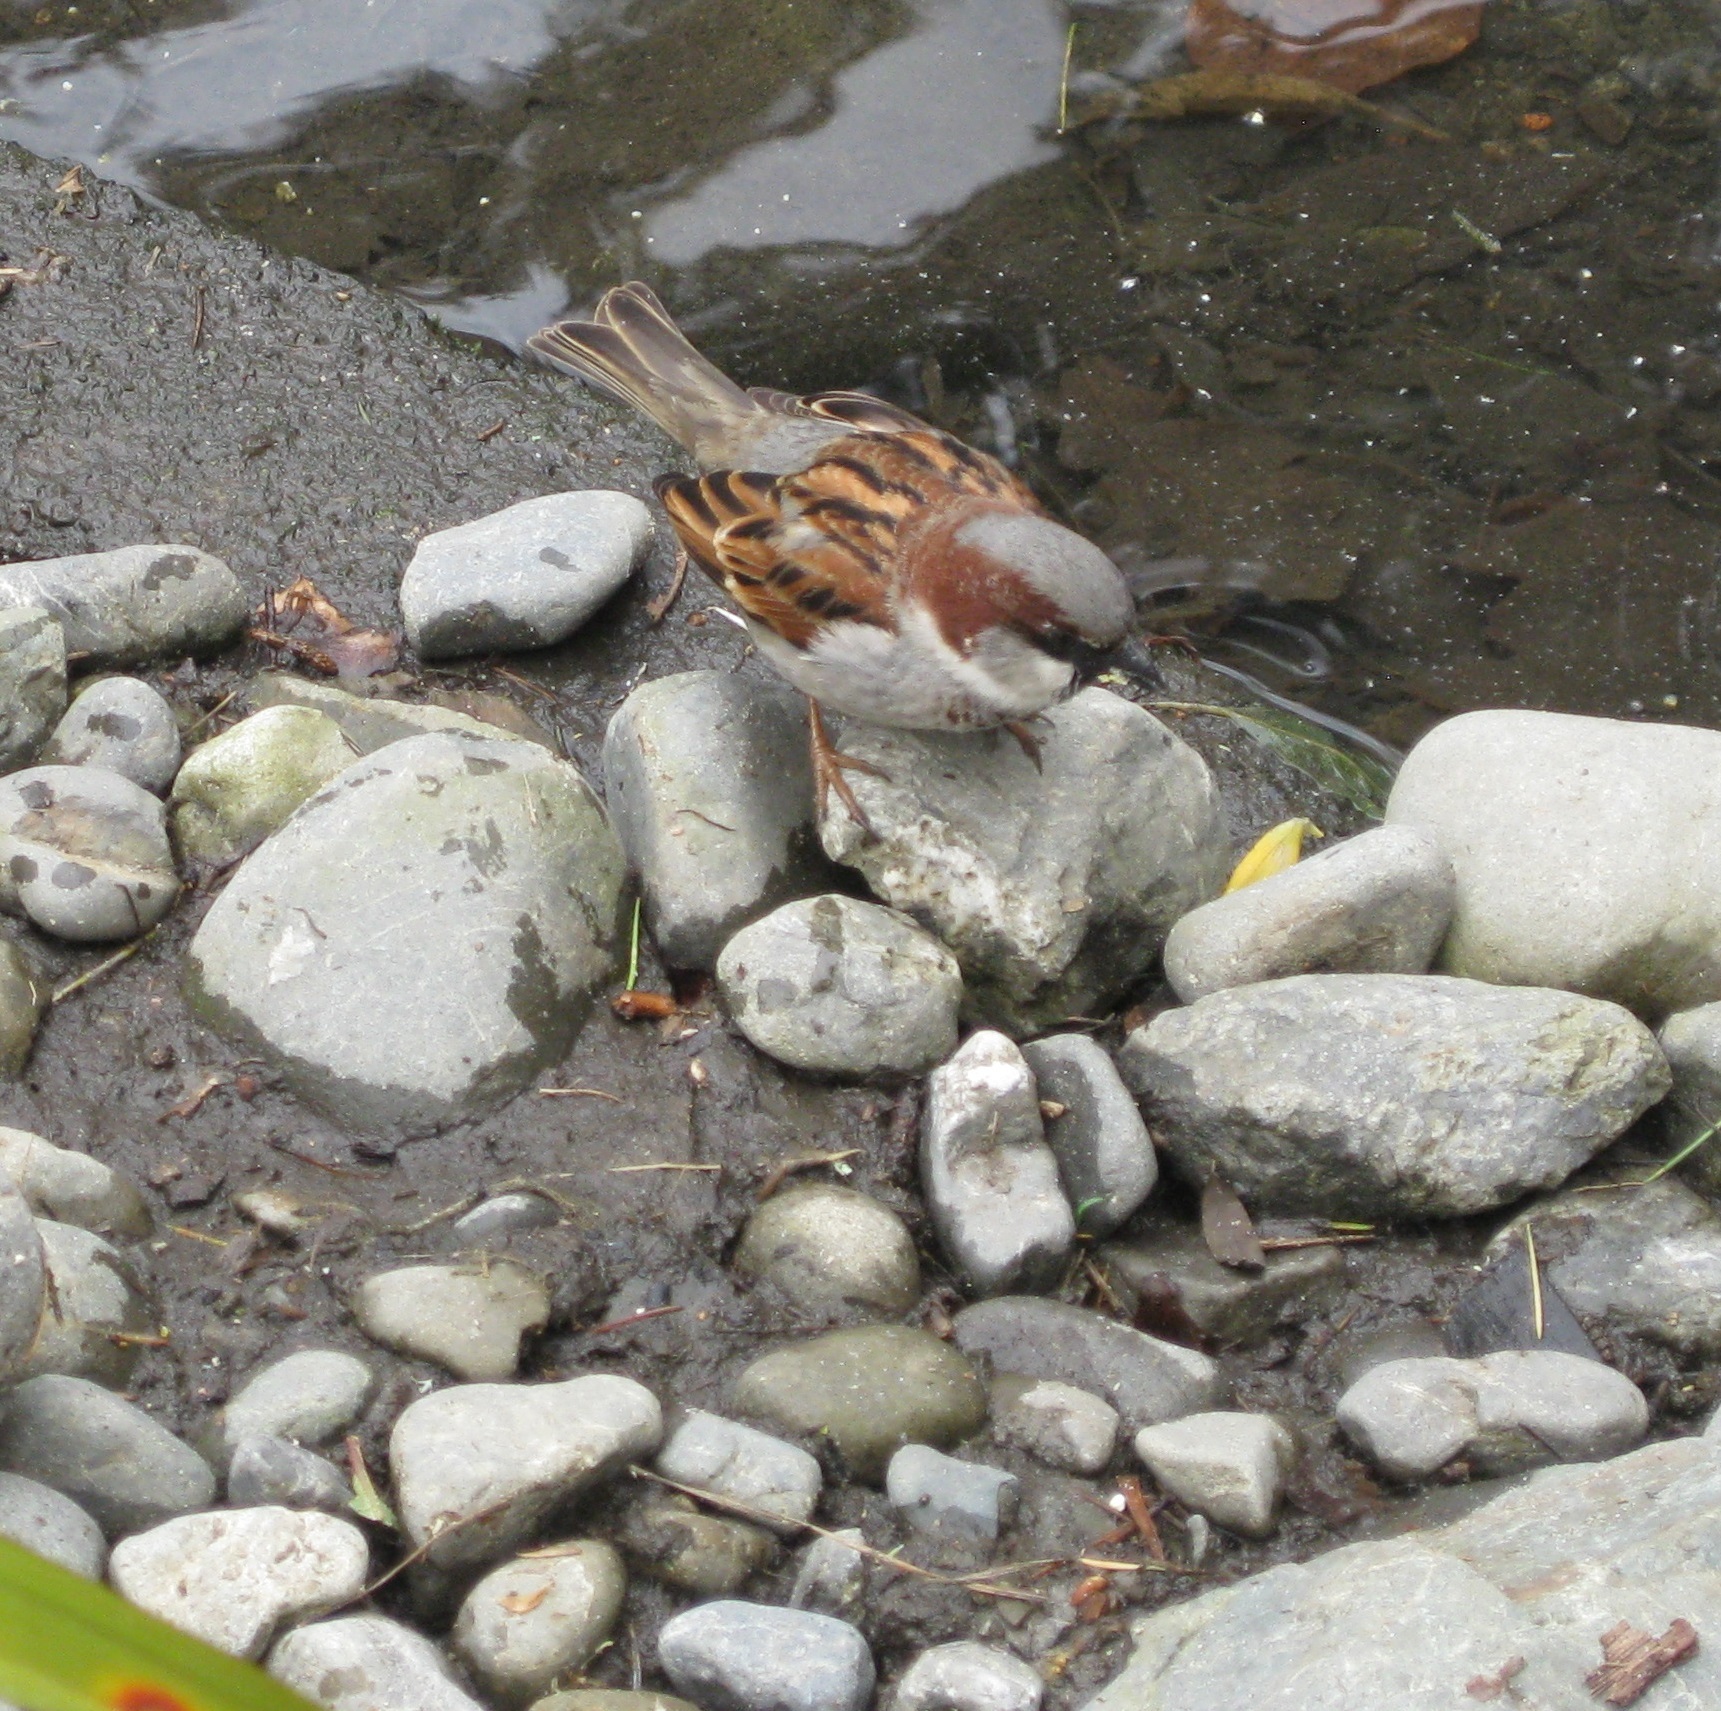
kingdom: Animalia
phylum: Chordata
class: Aves
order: Passeriformes
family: Passeridae
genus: Passer
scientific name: Passer domesticus
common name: House sparrow
